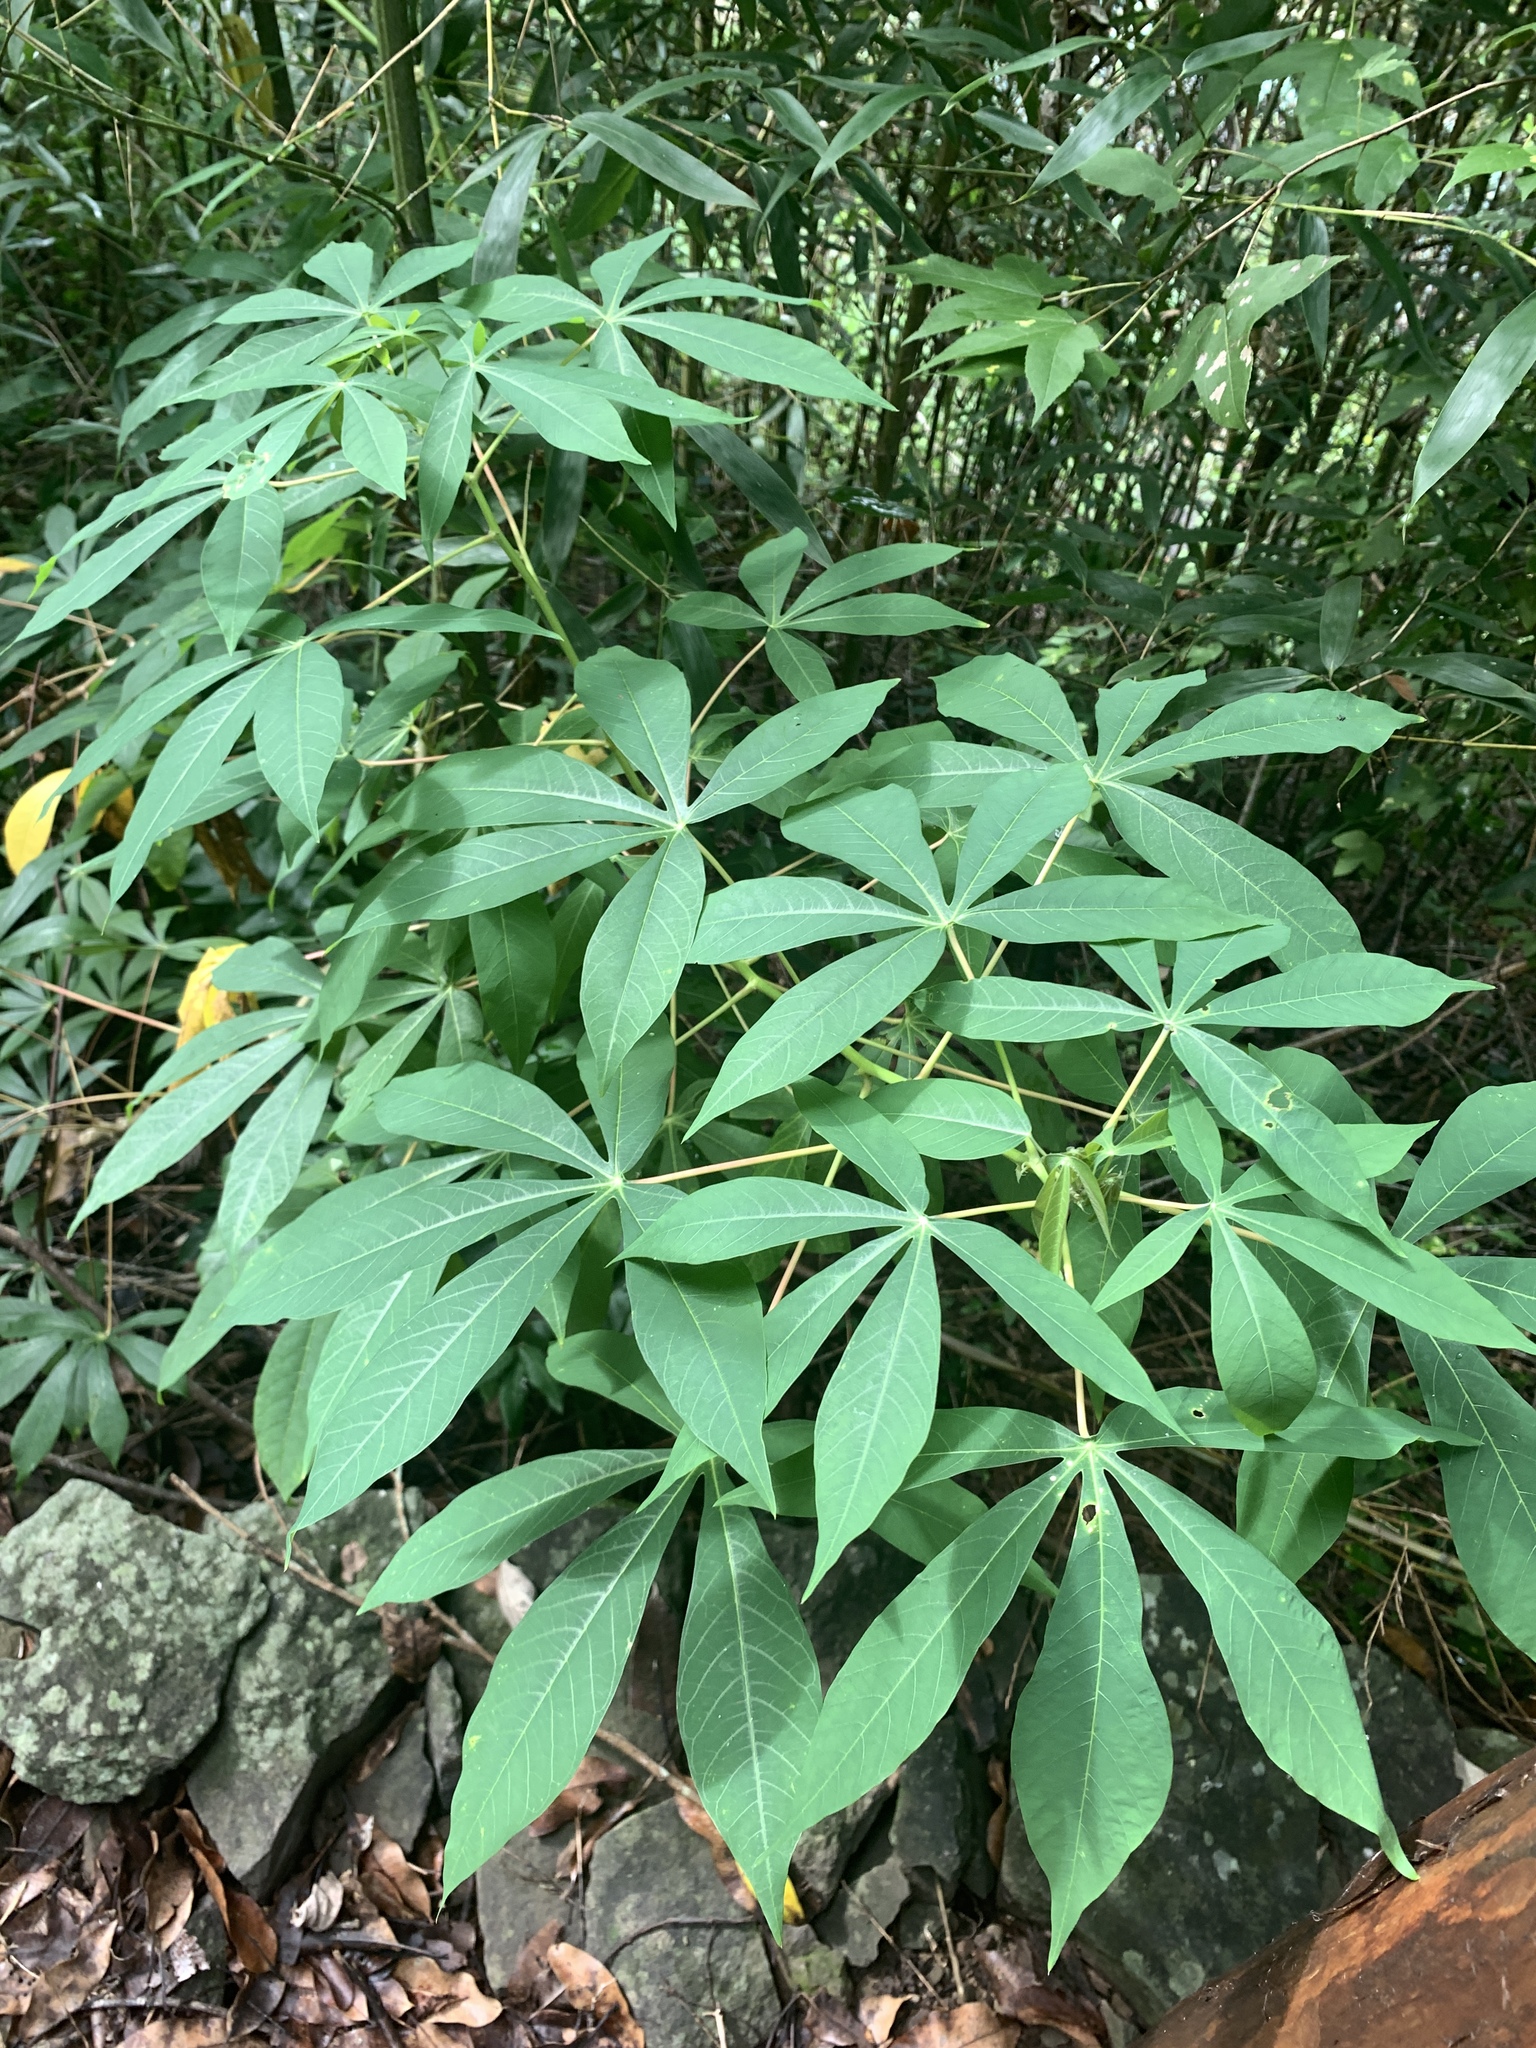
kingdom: Plantae
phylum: Tracheophyta
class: Magnoliopsida
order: Malpighiales
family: Euphorbiaceae
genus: Manihot
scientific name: Manihot esculenta
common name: Cassava
